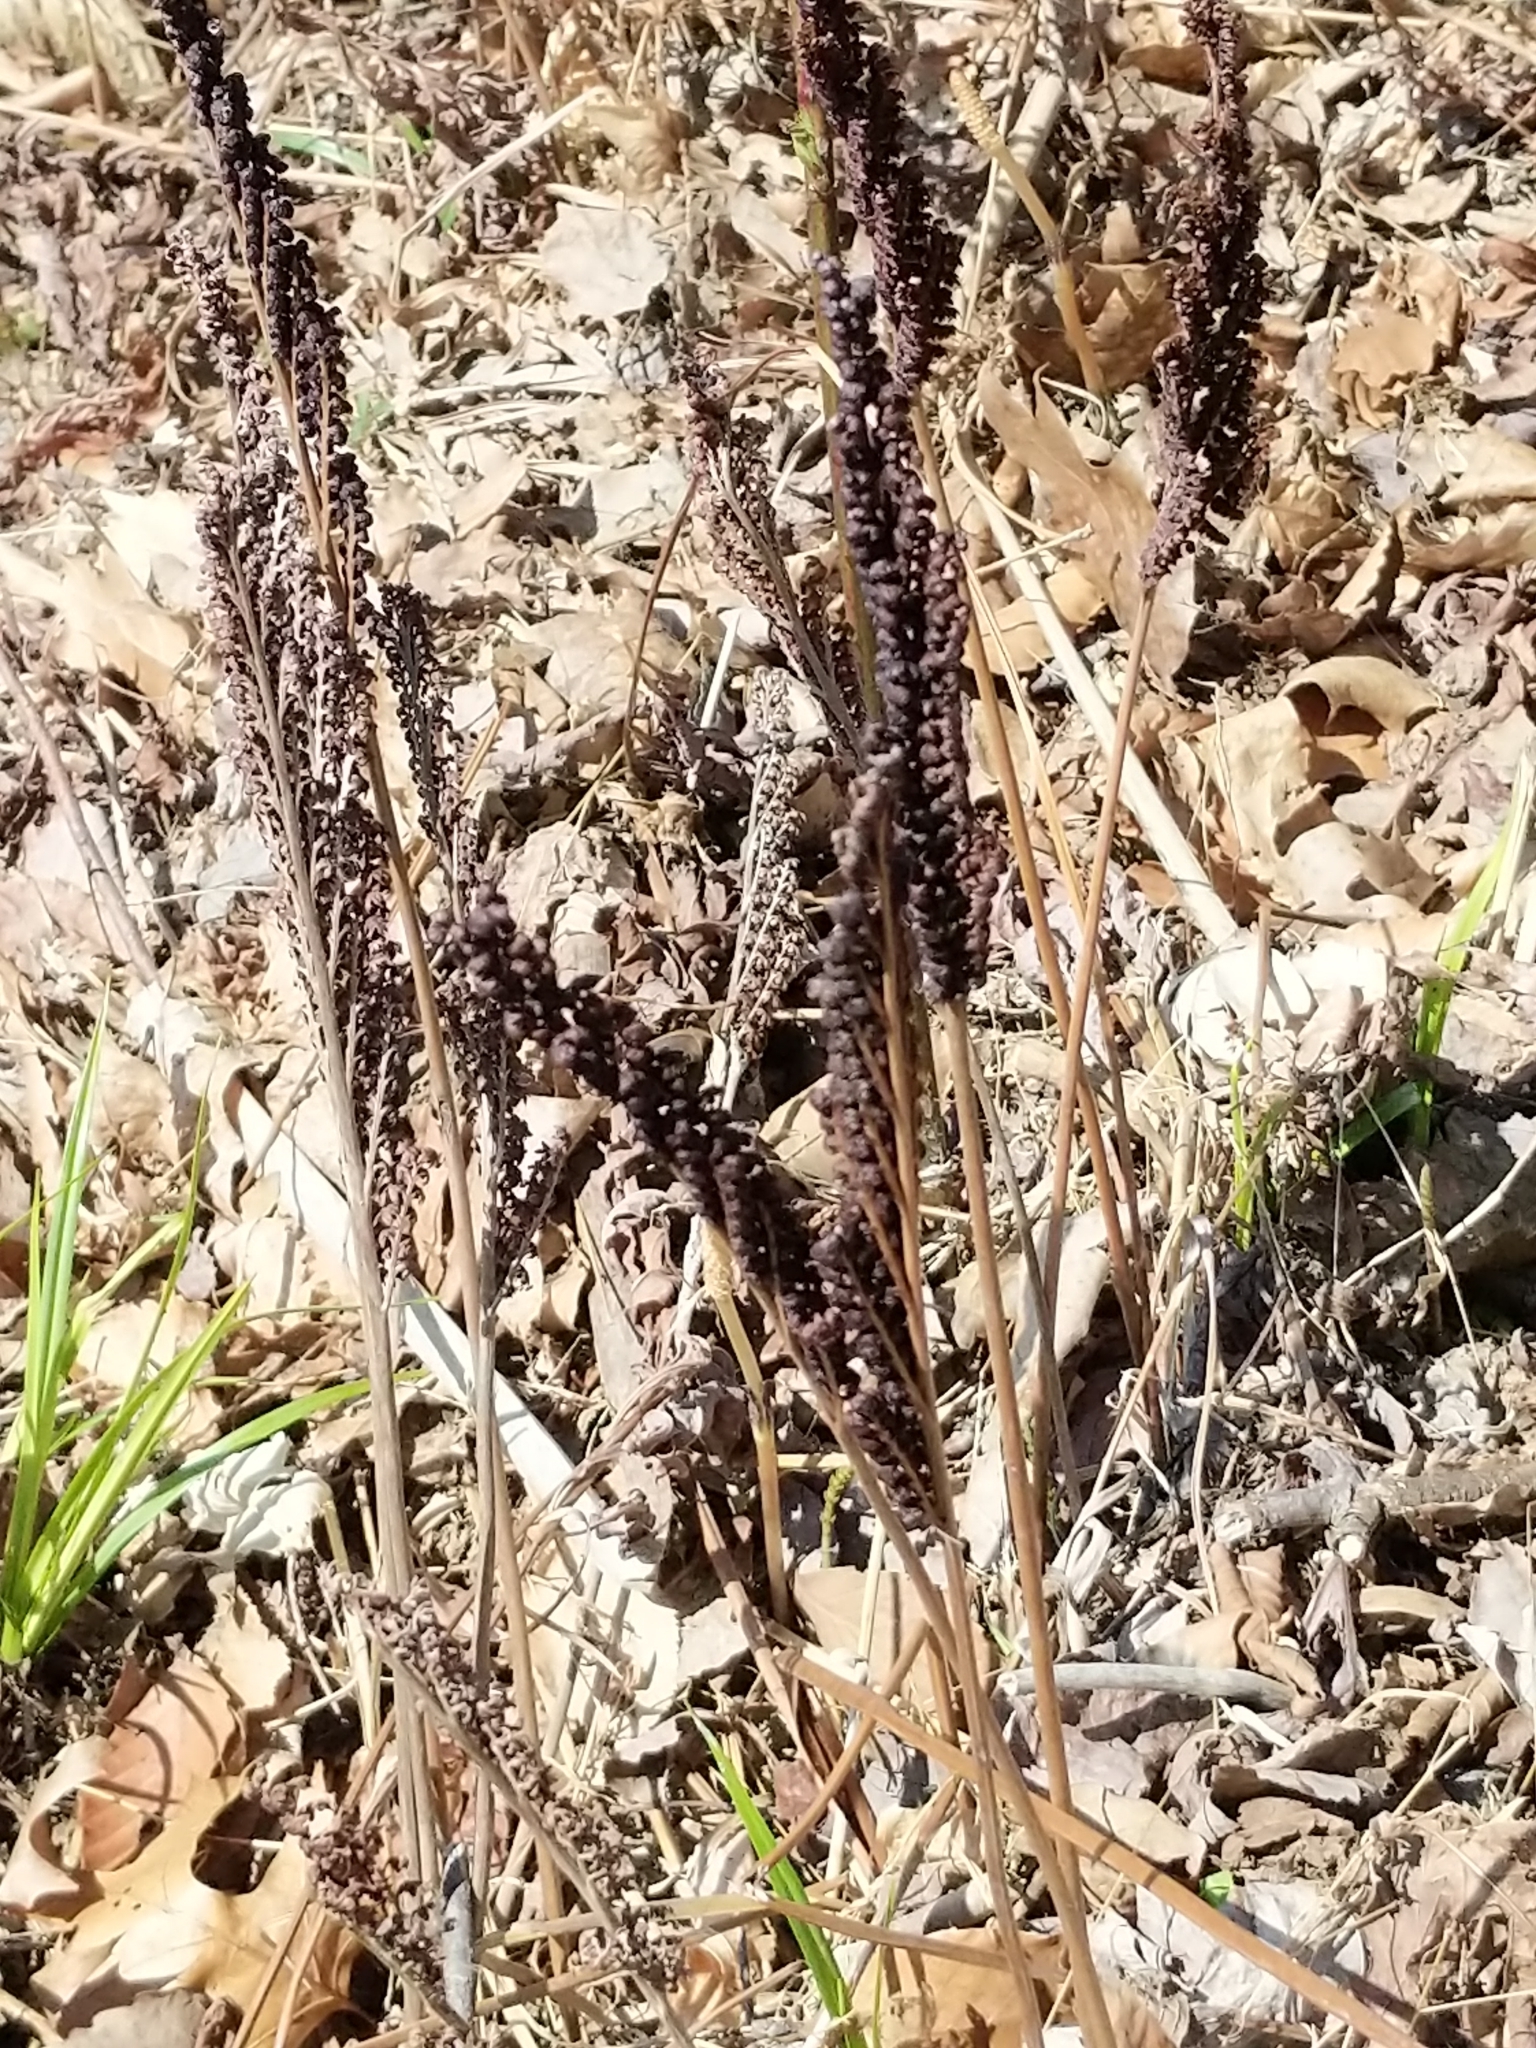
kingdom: Plantae
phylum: Tracheophyta
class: Polypodiopsida
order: Polypodiales
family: Onocleaceae
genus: Onoclea
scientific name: Onoclea sensibilis
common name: Sensitive fern
